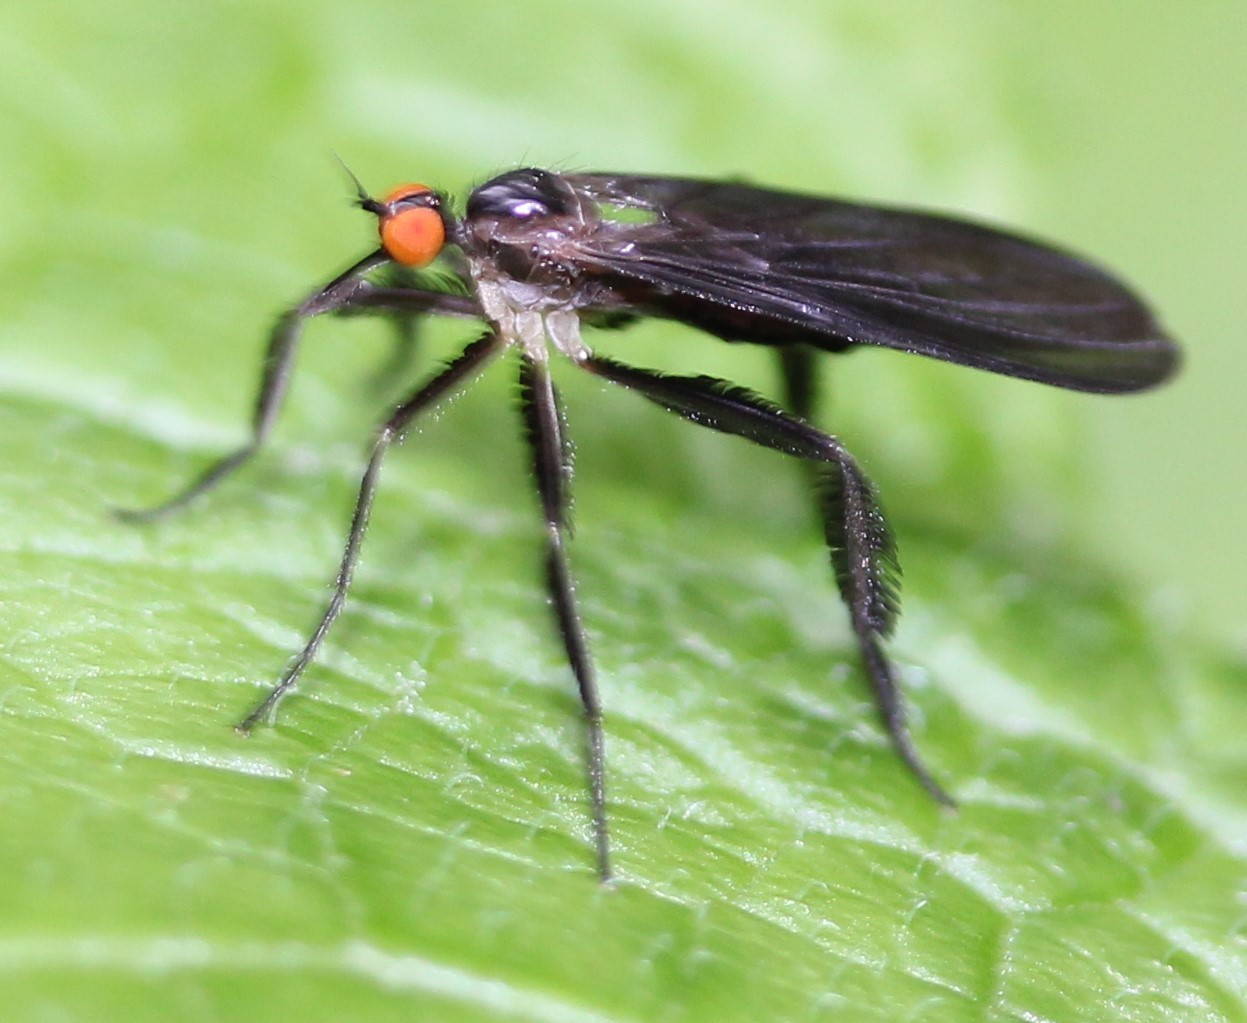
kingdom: Animalia
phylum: Arthropoda
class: Insecta
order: Diptera
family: Empididae
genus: Rhamphomyia
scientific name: Rhamphomyia longicauda
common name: Long-tailed dance fly
